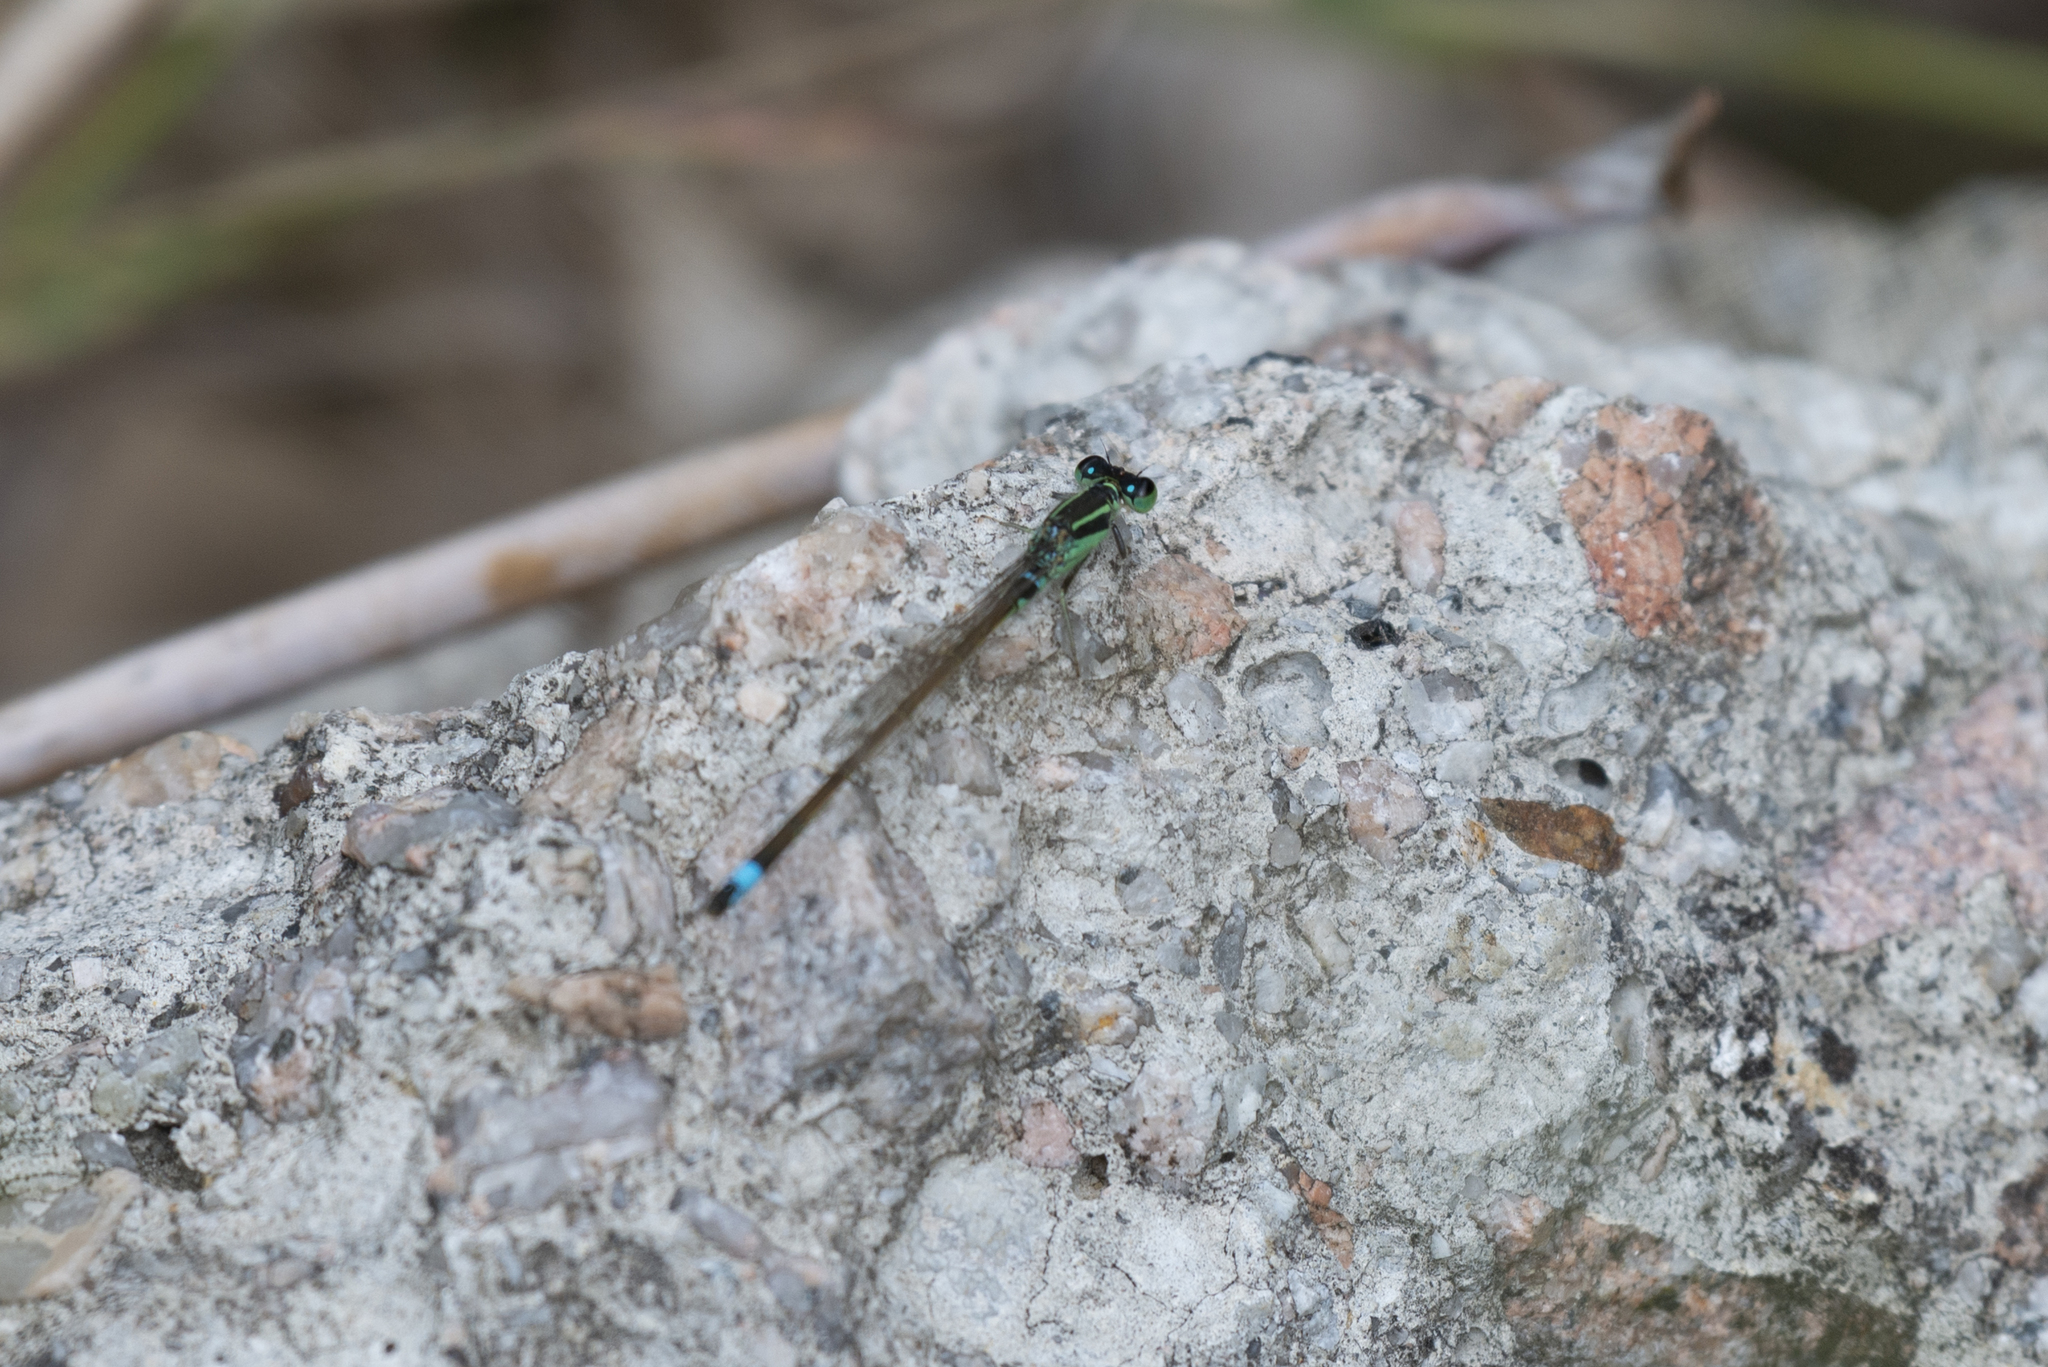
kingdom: Animalia
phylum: Arthropoda
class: Insecta
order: Odonata
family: Coenagrionidae
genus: Ischnura
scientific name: Ischnura senegalensis
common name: Tropical bluetail
